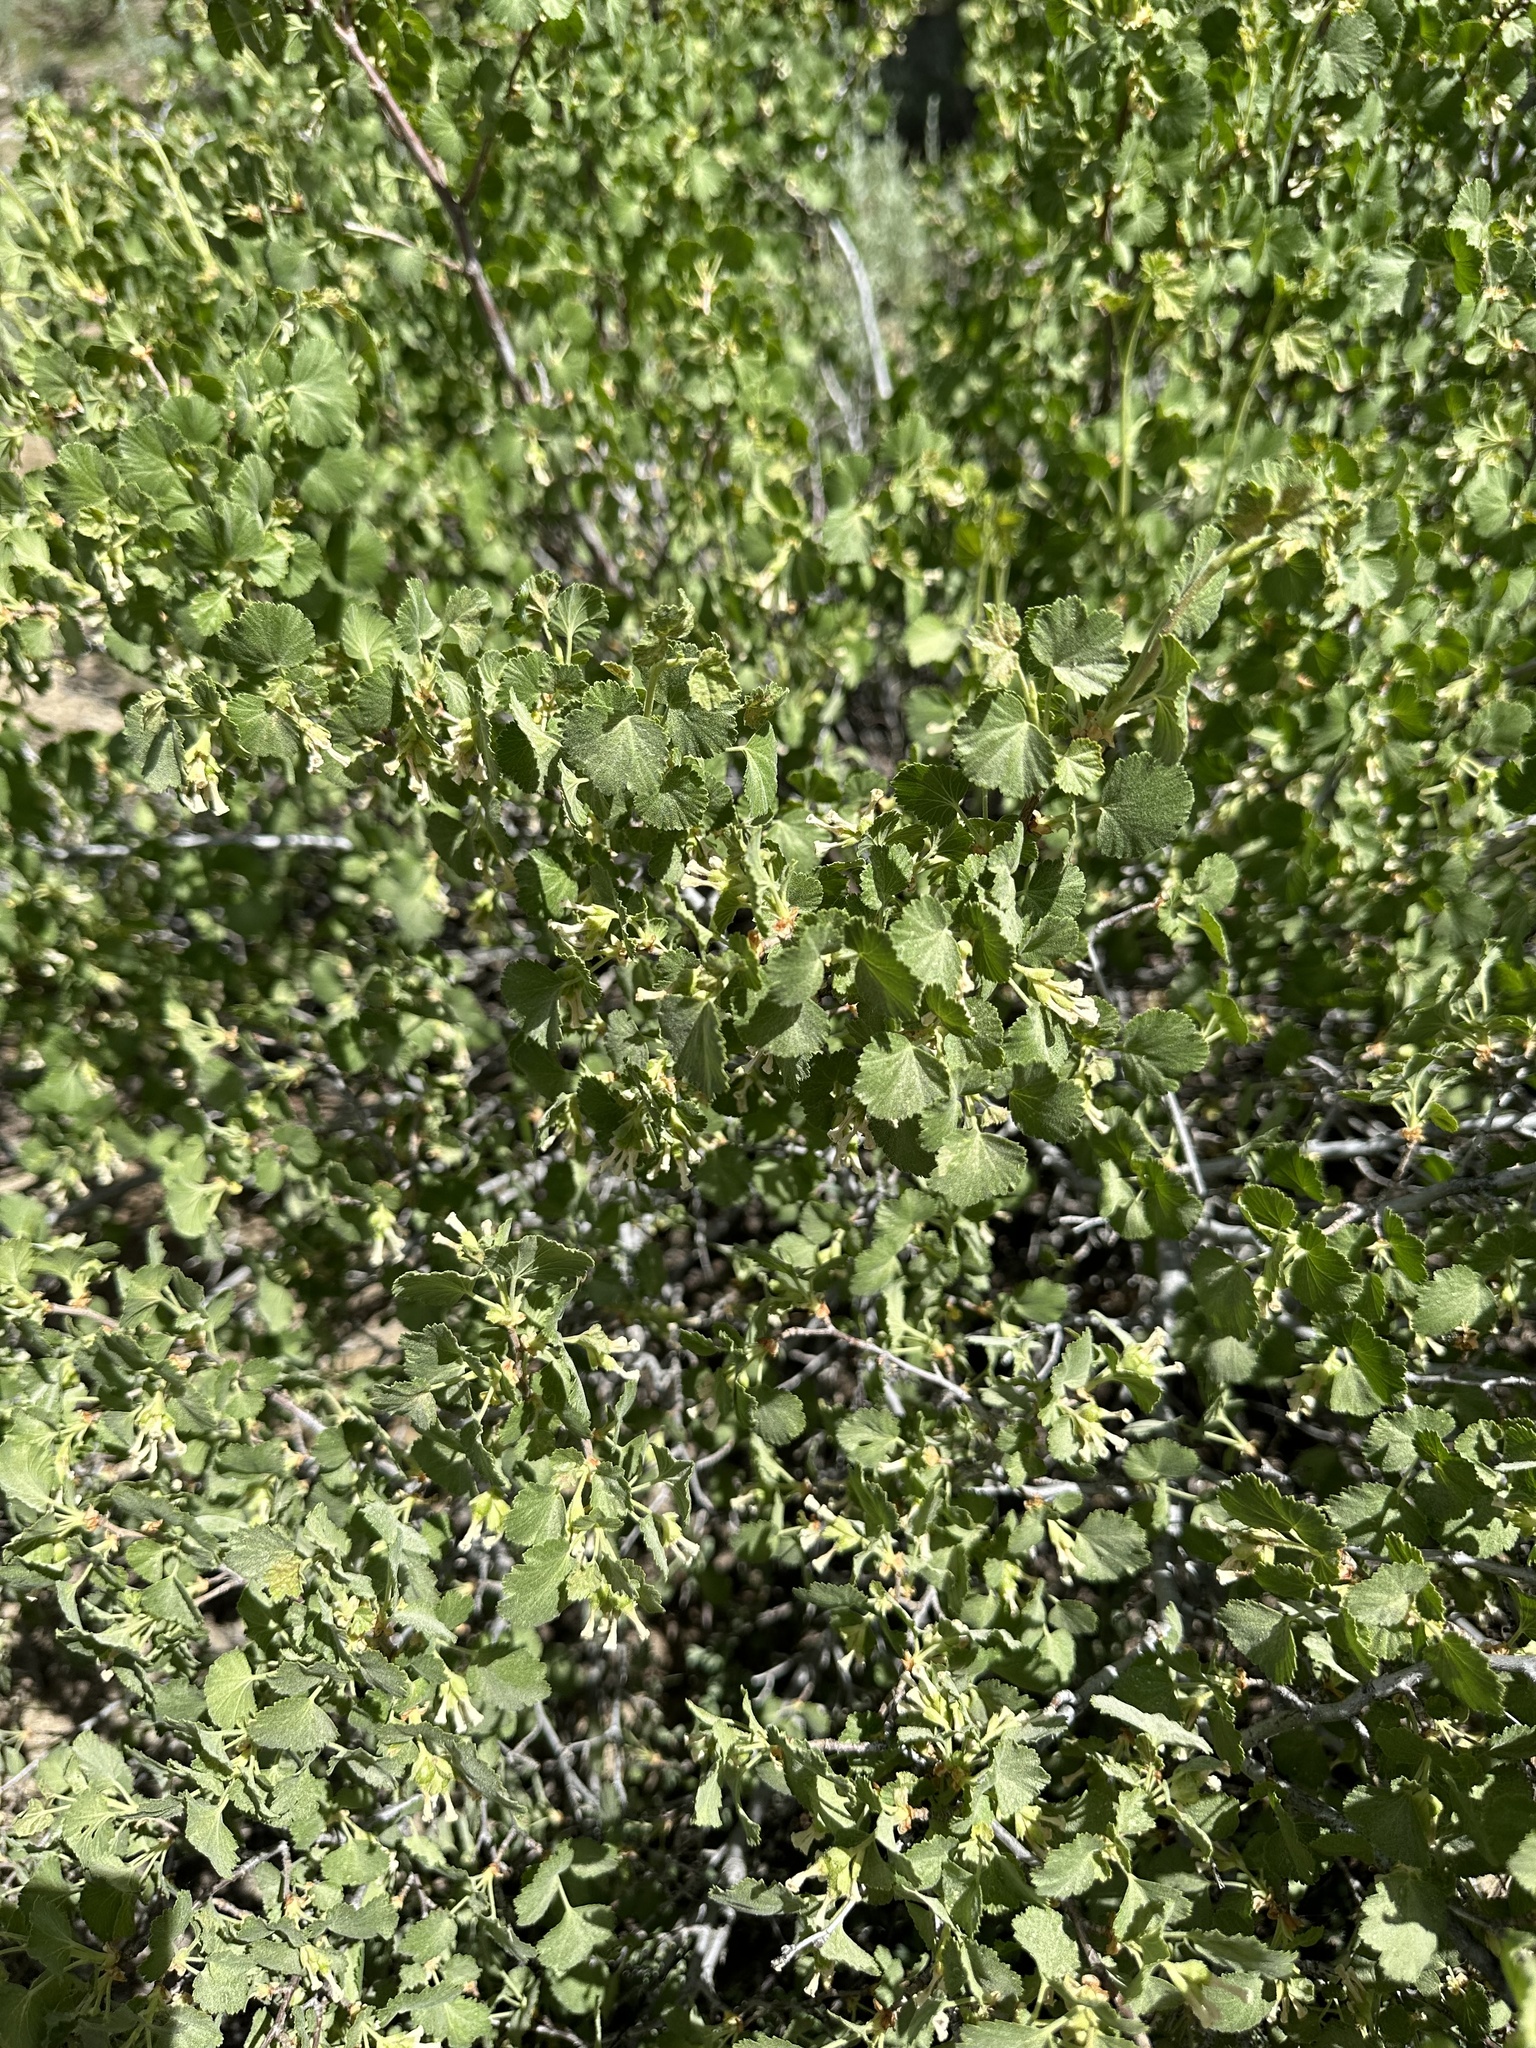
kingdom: Plantae
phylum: Tracheophyta
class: Magnoliopsida
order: Saxifragales
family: Grossulariaceae
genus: Ribes
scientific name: Ribes cereum
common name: Wax currant
